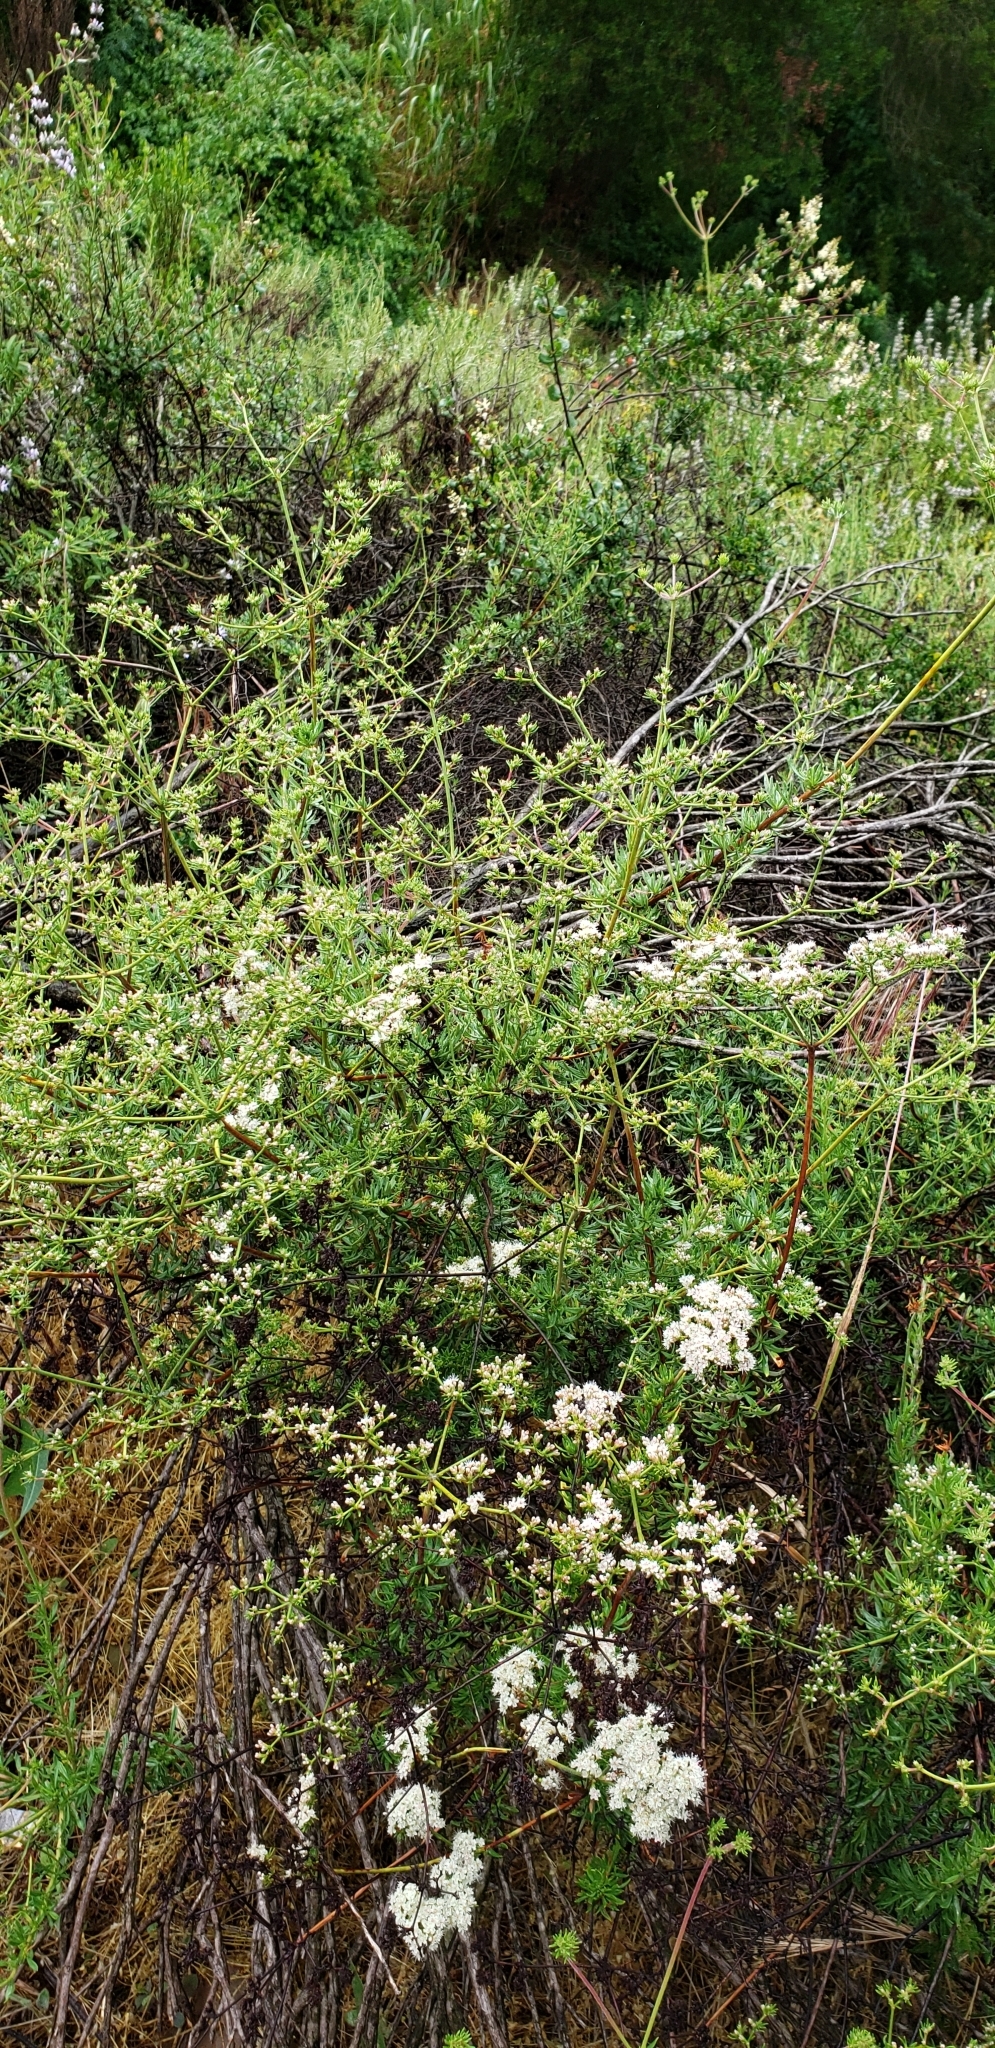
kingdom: Plantae
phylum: Tracheophyta
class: Magnoliopsida
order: Caryophyllales
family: Polygonaceae
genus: Eriogonum
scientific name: Eriogonum fasciculatum
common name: California wild buckwheat
